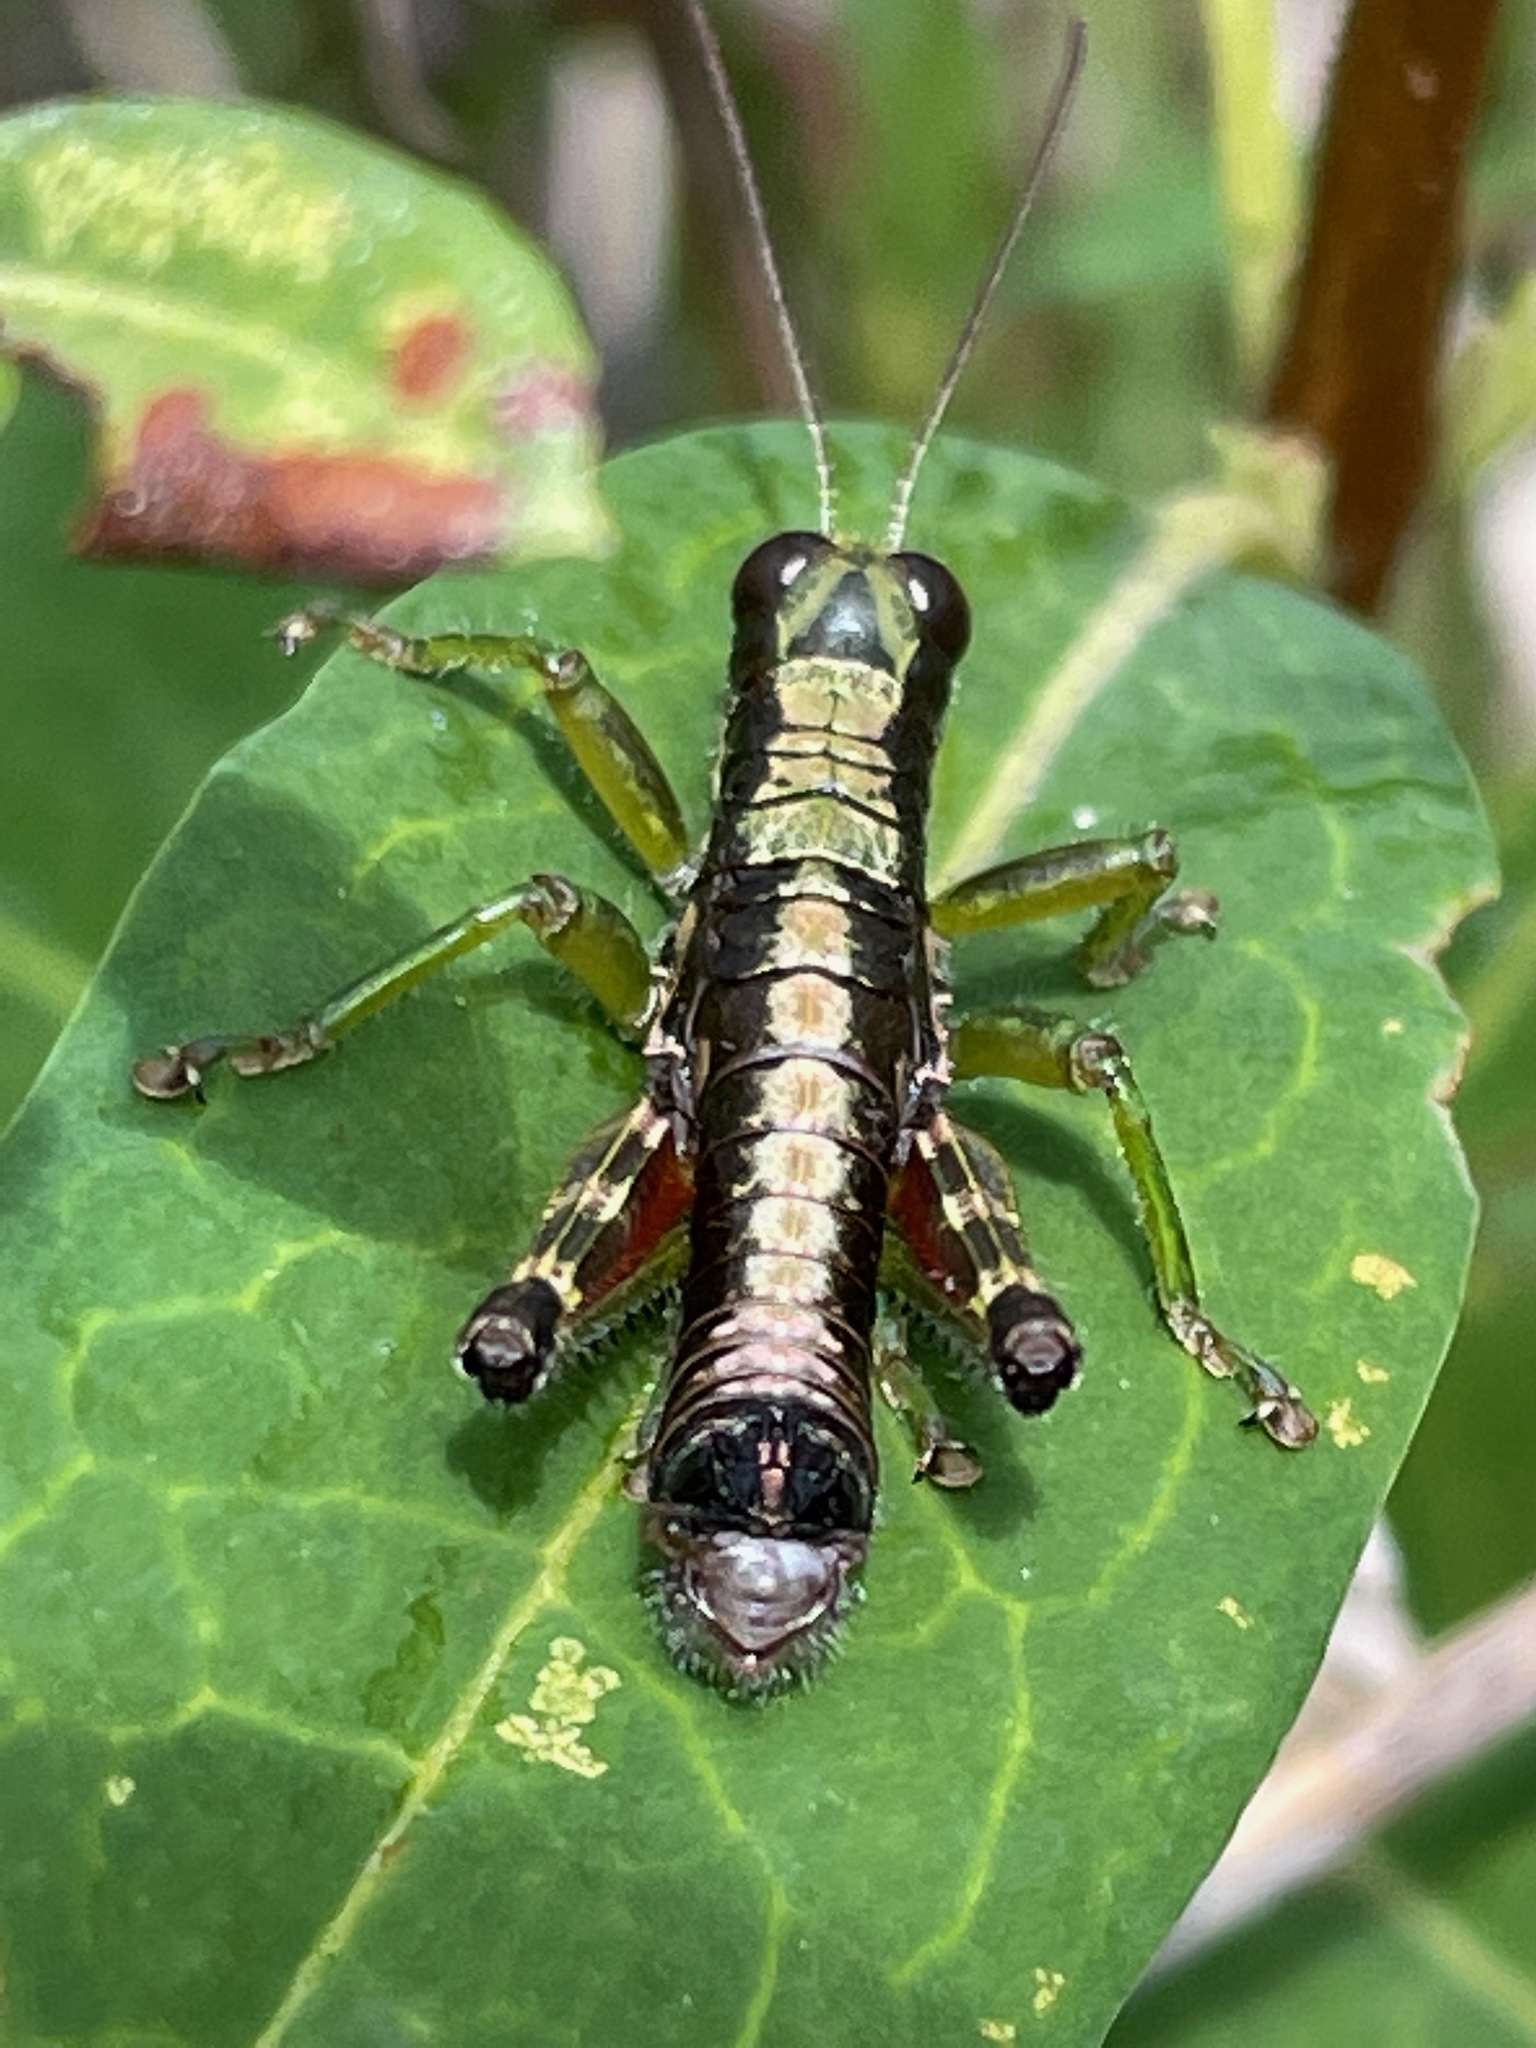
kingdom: Animalia
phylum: Arthropoda
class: Insecta
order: Orthoptera
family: Acrididae
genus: Booneacris
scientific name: Booneacris glacialis
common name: Wingless mountain grasshopper
